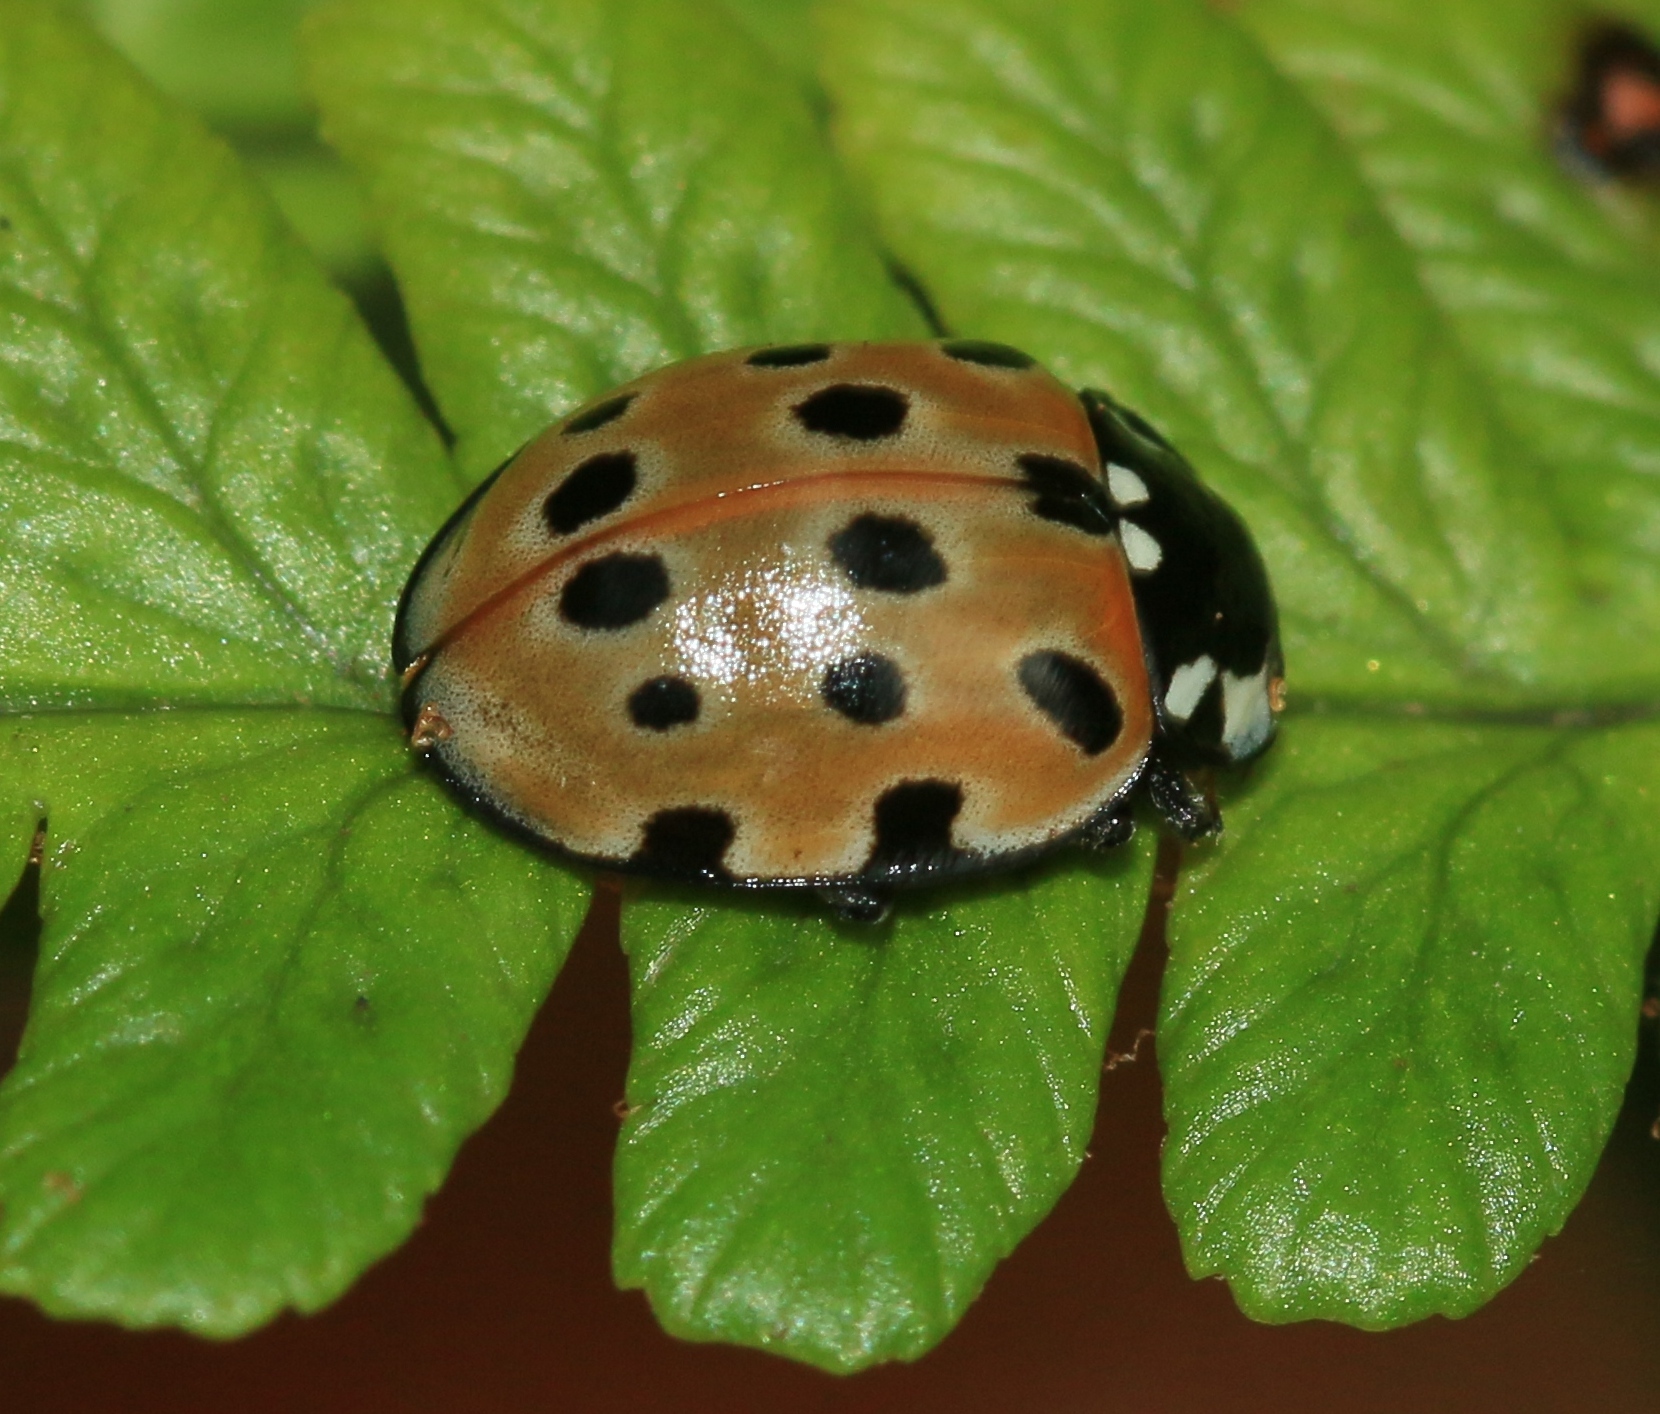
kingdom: Animalia
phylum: Arthropoda
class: Insecta
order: Coleoptera
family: Coccinellidae
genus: Anatis
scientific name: Anatis ocellata
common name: Eyed ladybird
